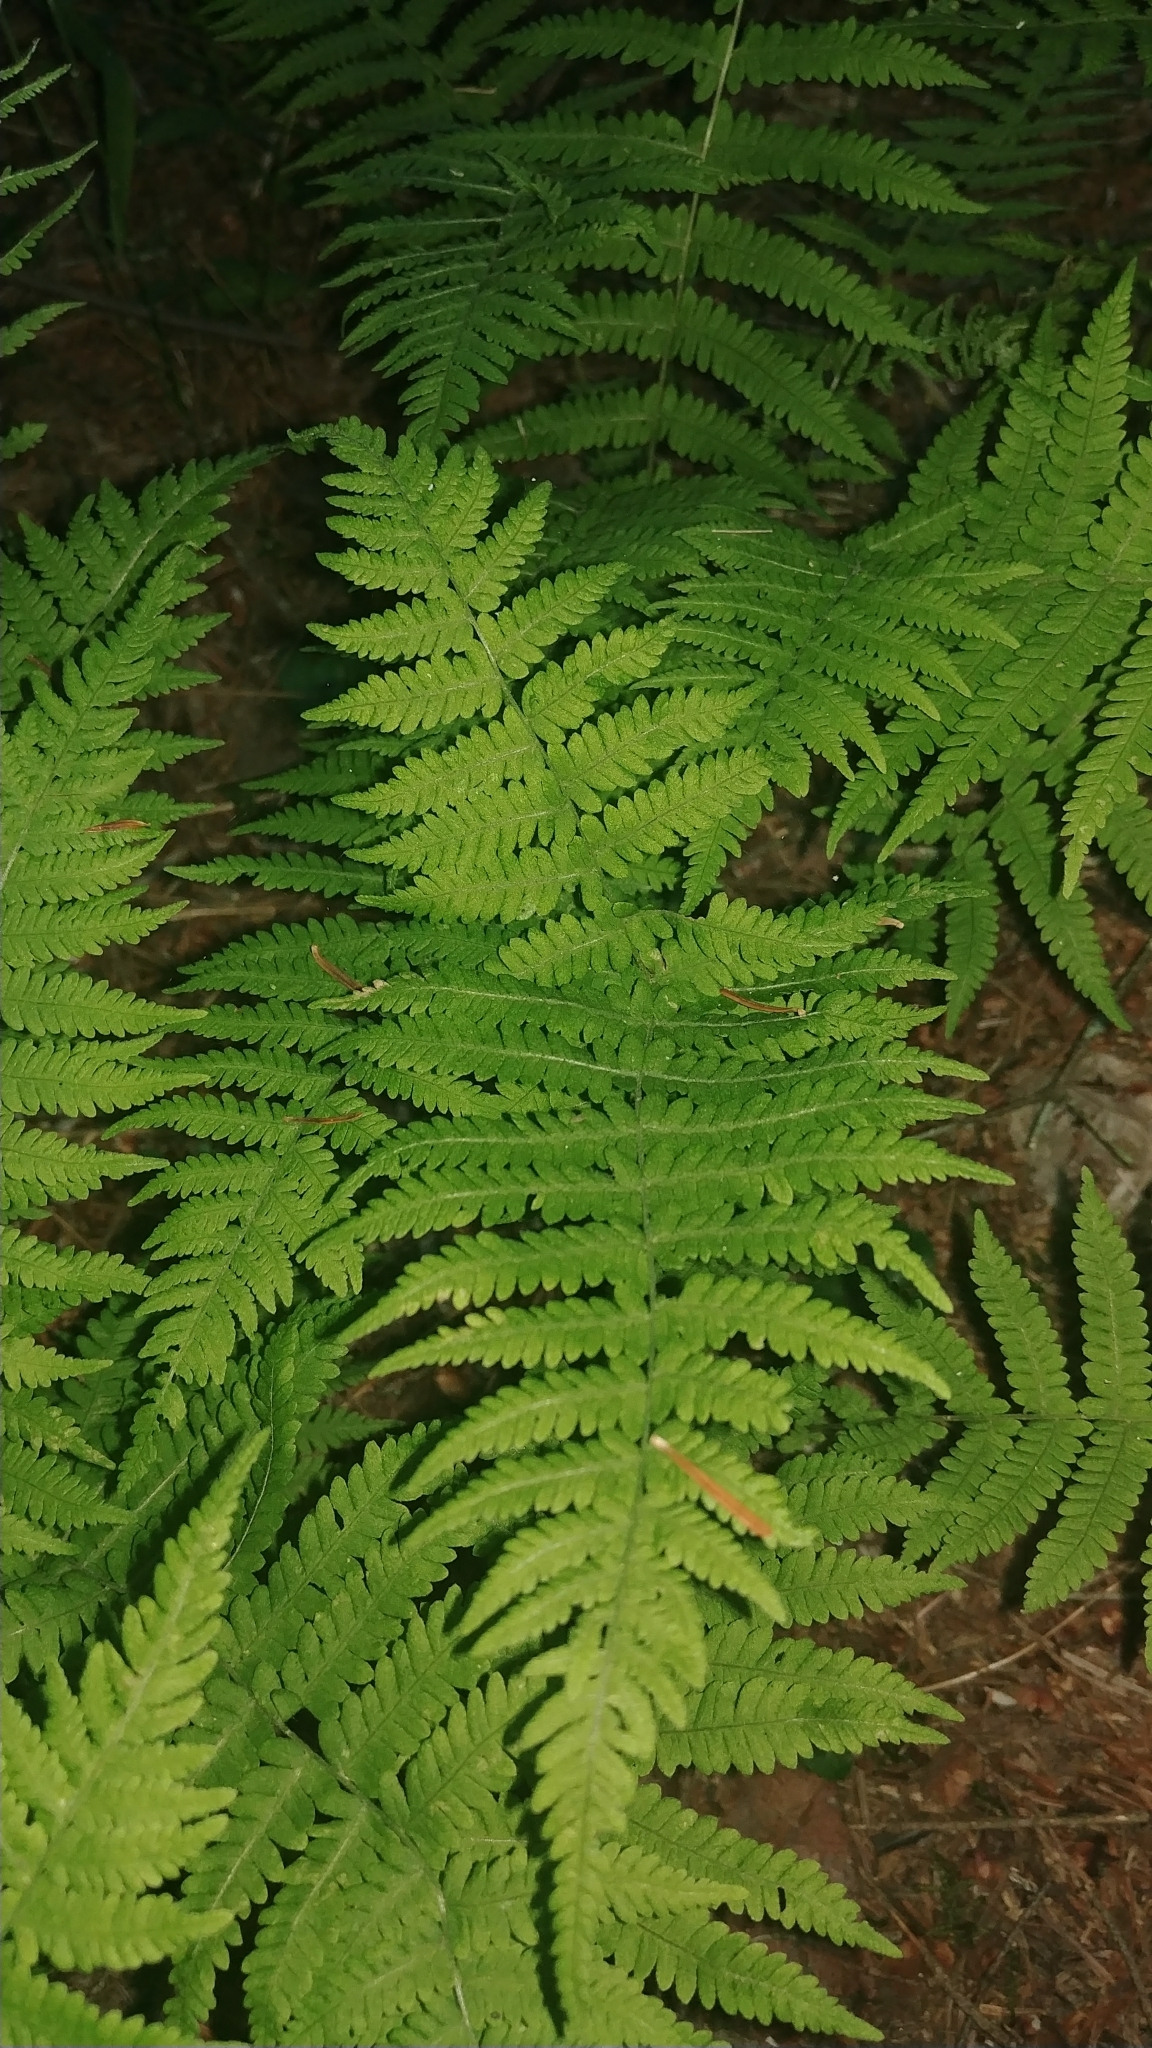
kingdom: Plantae
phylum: Tracheophyta
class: Polypodiopsida
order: Polypodiales
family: Thelypteridaceae
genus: Amauropelta
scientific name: Amauropelta noveboracensis
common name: New york fern
